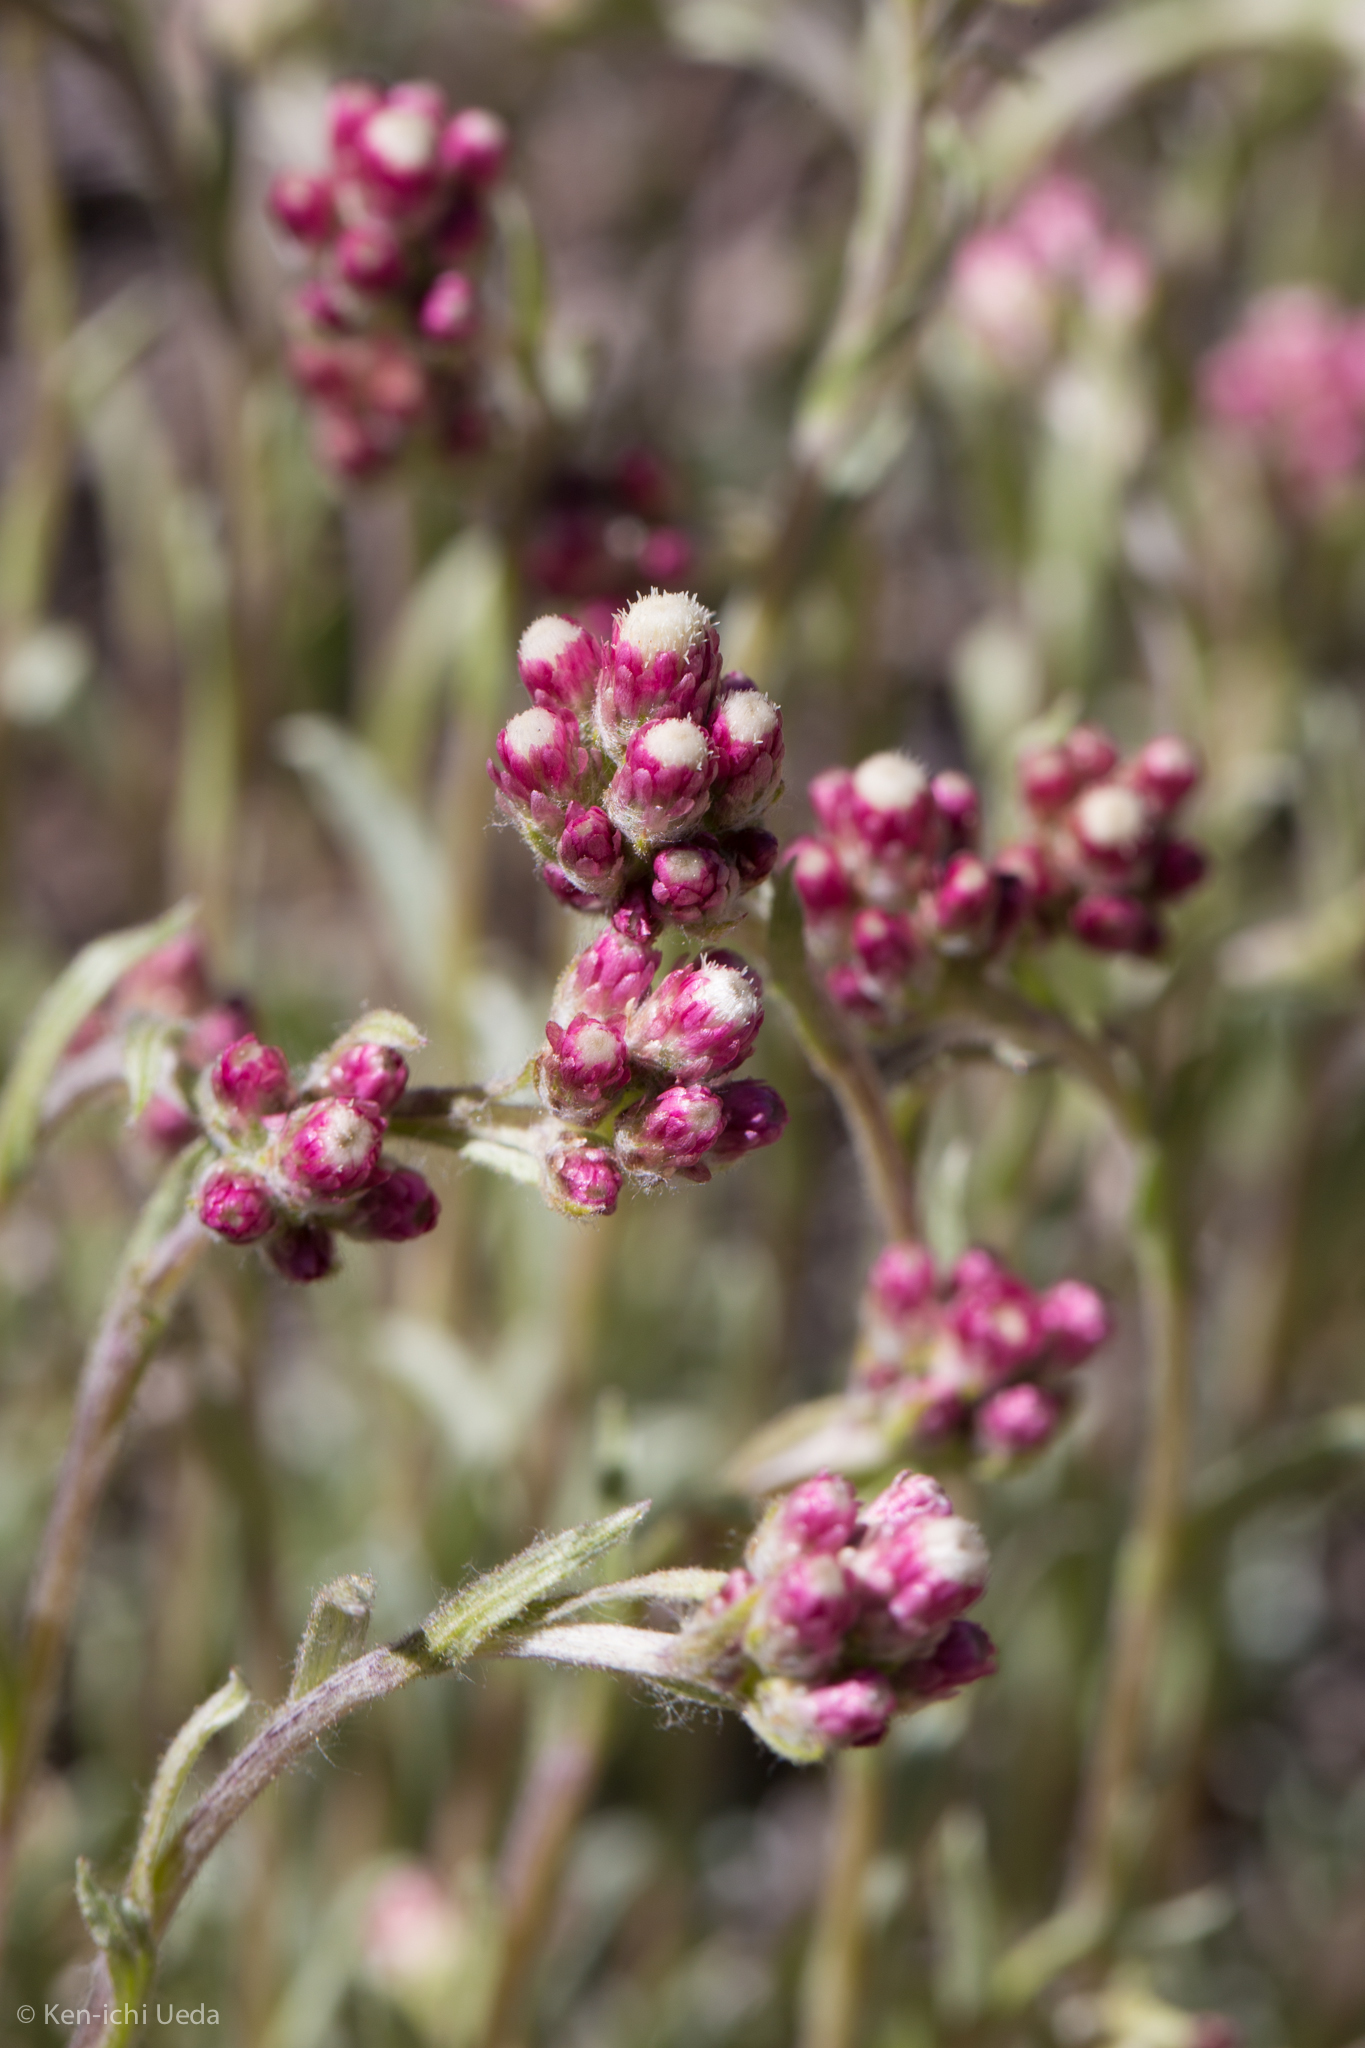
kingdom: Plantae
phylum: Tracheophyta
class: Magnoliopsida
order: Asterales
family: Asteraceae
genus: Antennaria
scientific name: Antennaria rosea
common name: Rosy pussytoes
